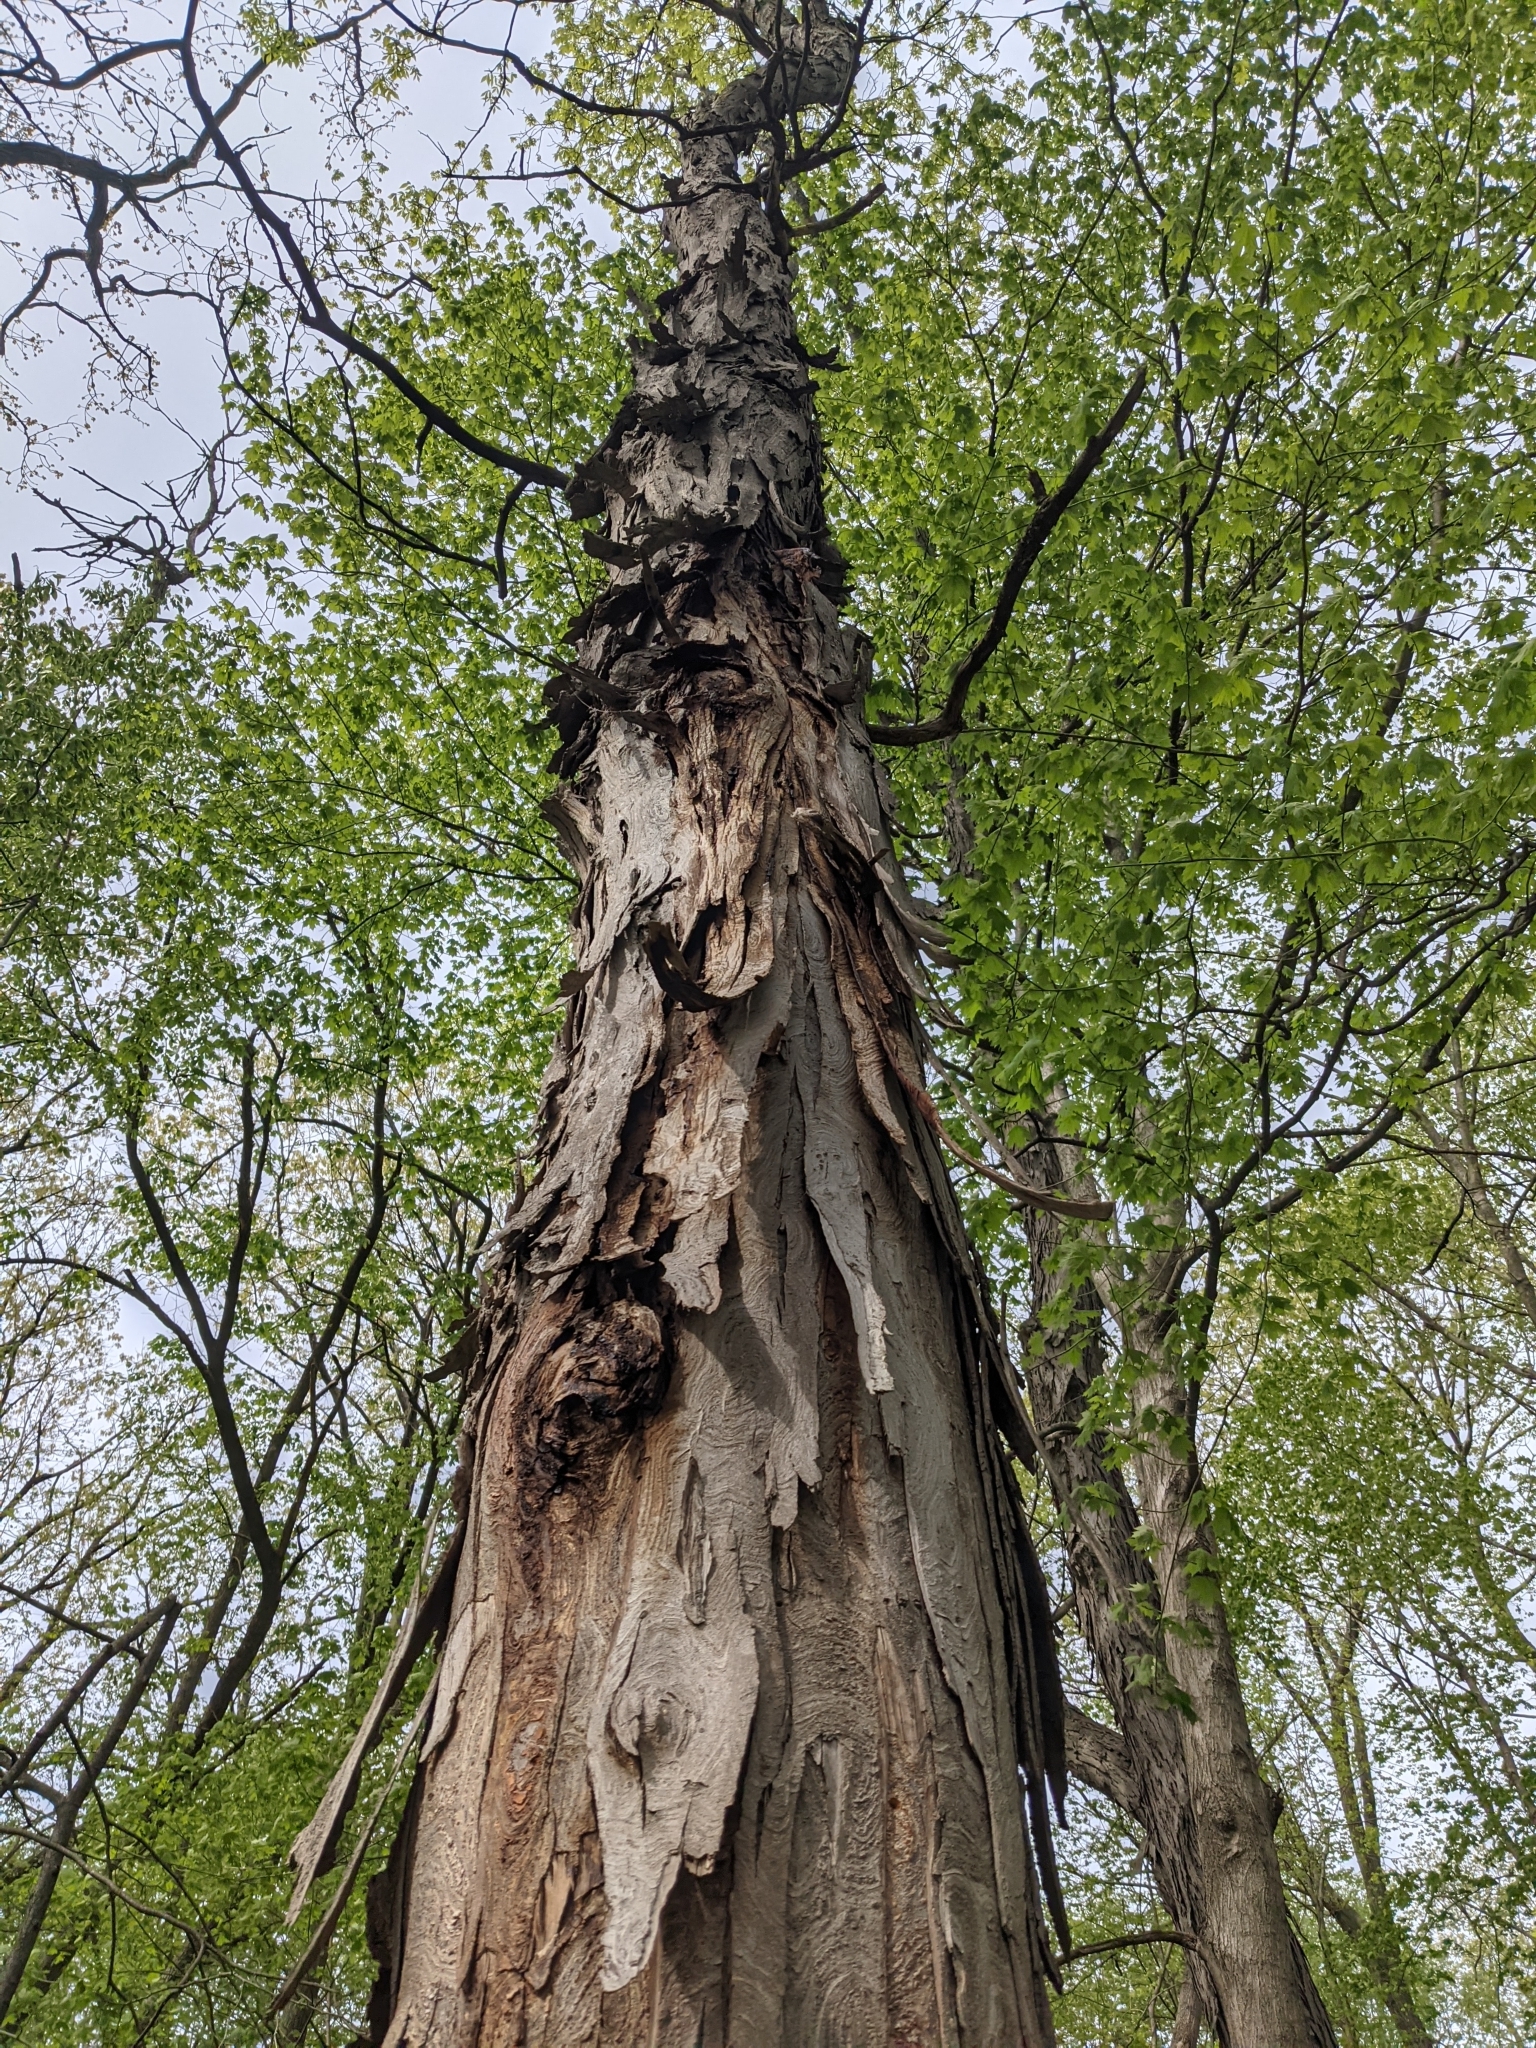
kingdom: Plantae
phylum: Tracheophyta
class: Magnoliopsida
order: Fagales
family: Juglandaceae
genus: Carya
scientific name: Carya ovata
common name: Shagbark hickory
